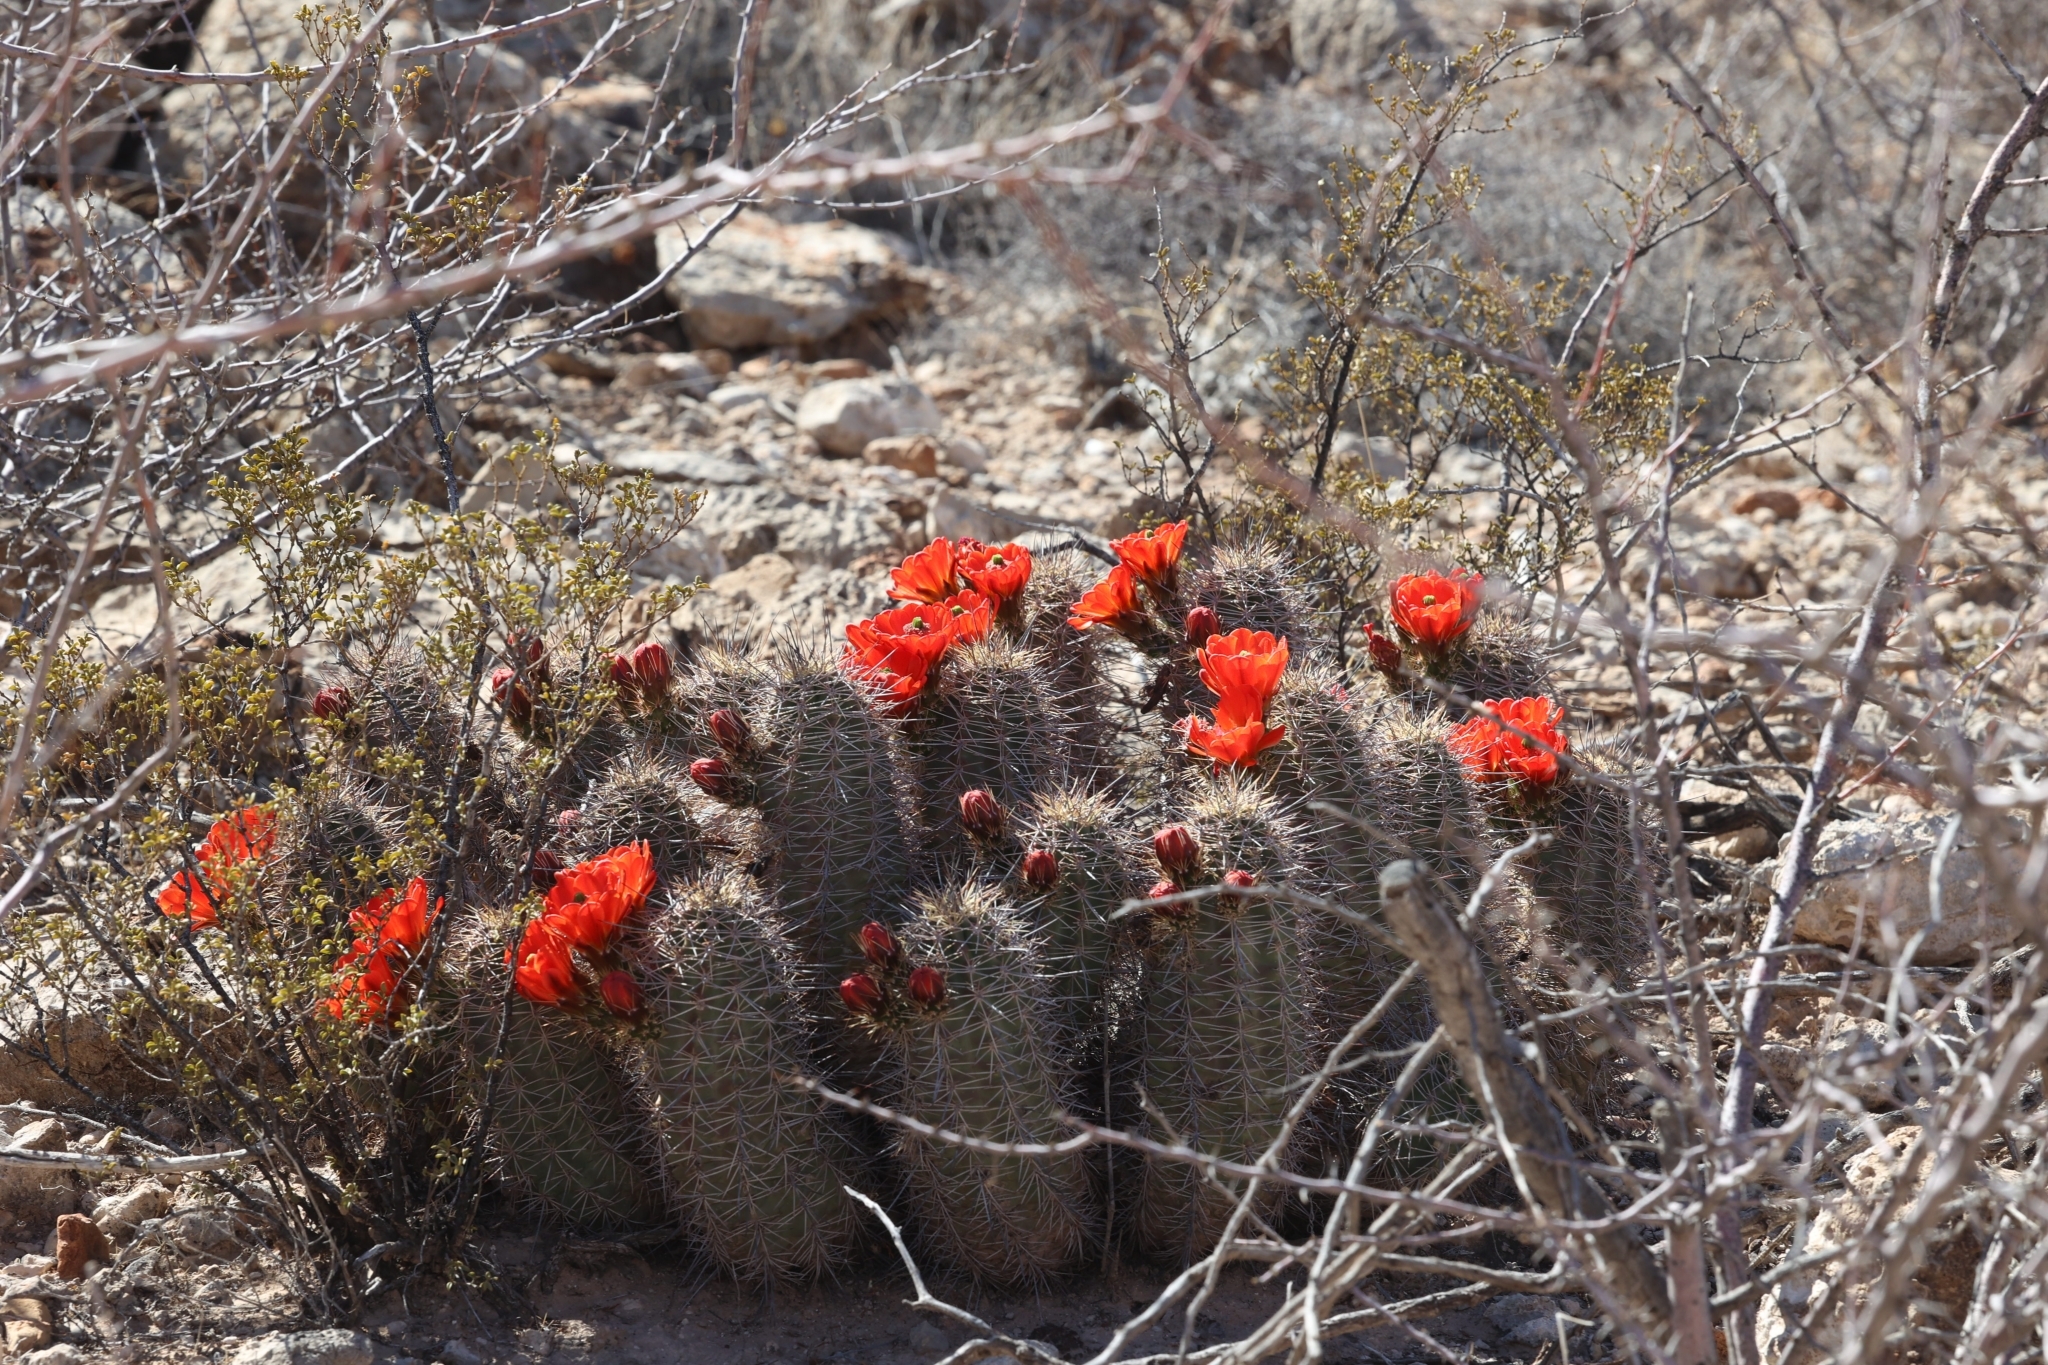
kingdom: Plantae
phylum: Tracheophyta
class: Magnoliopsida
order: Caryophyllales
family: Cactaceae
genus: Echinocereus
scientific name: Echinocereus coccineus
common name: Scarlet hedgehog cactus
